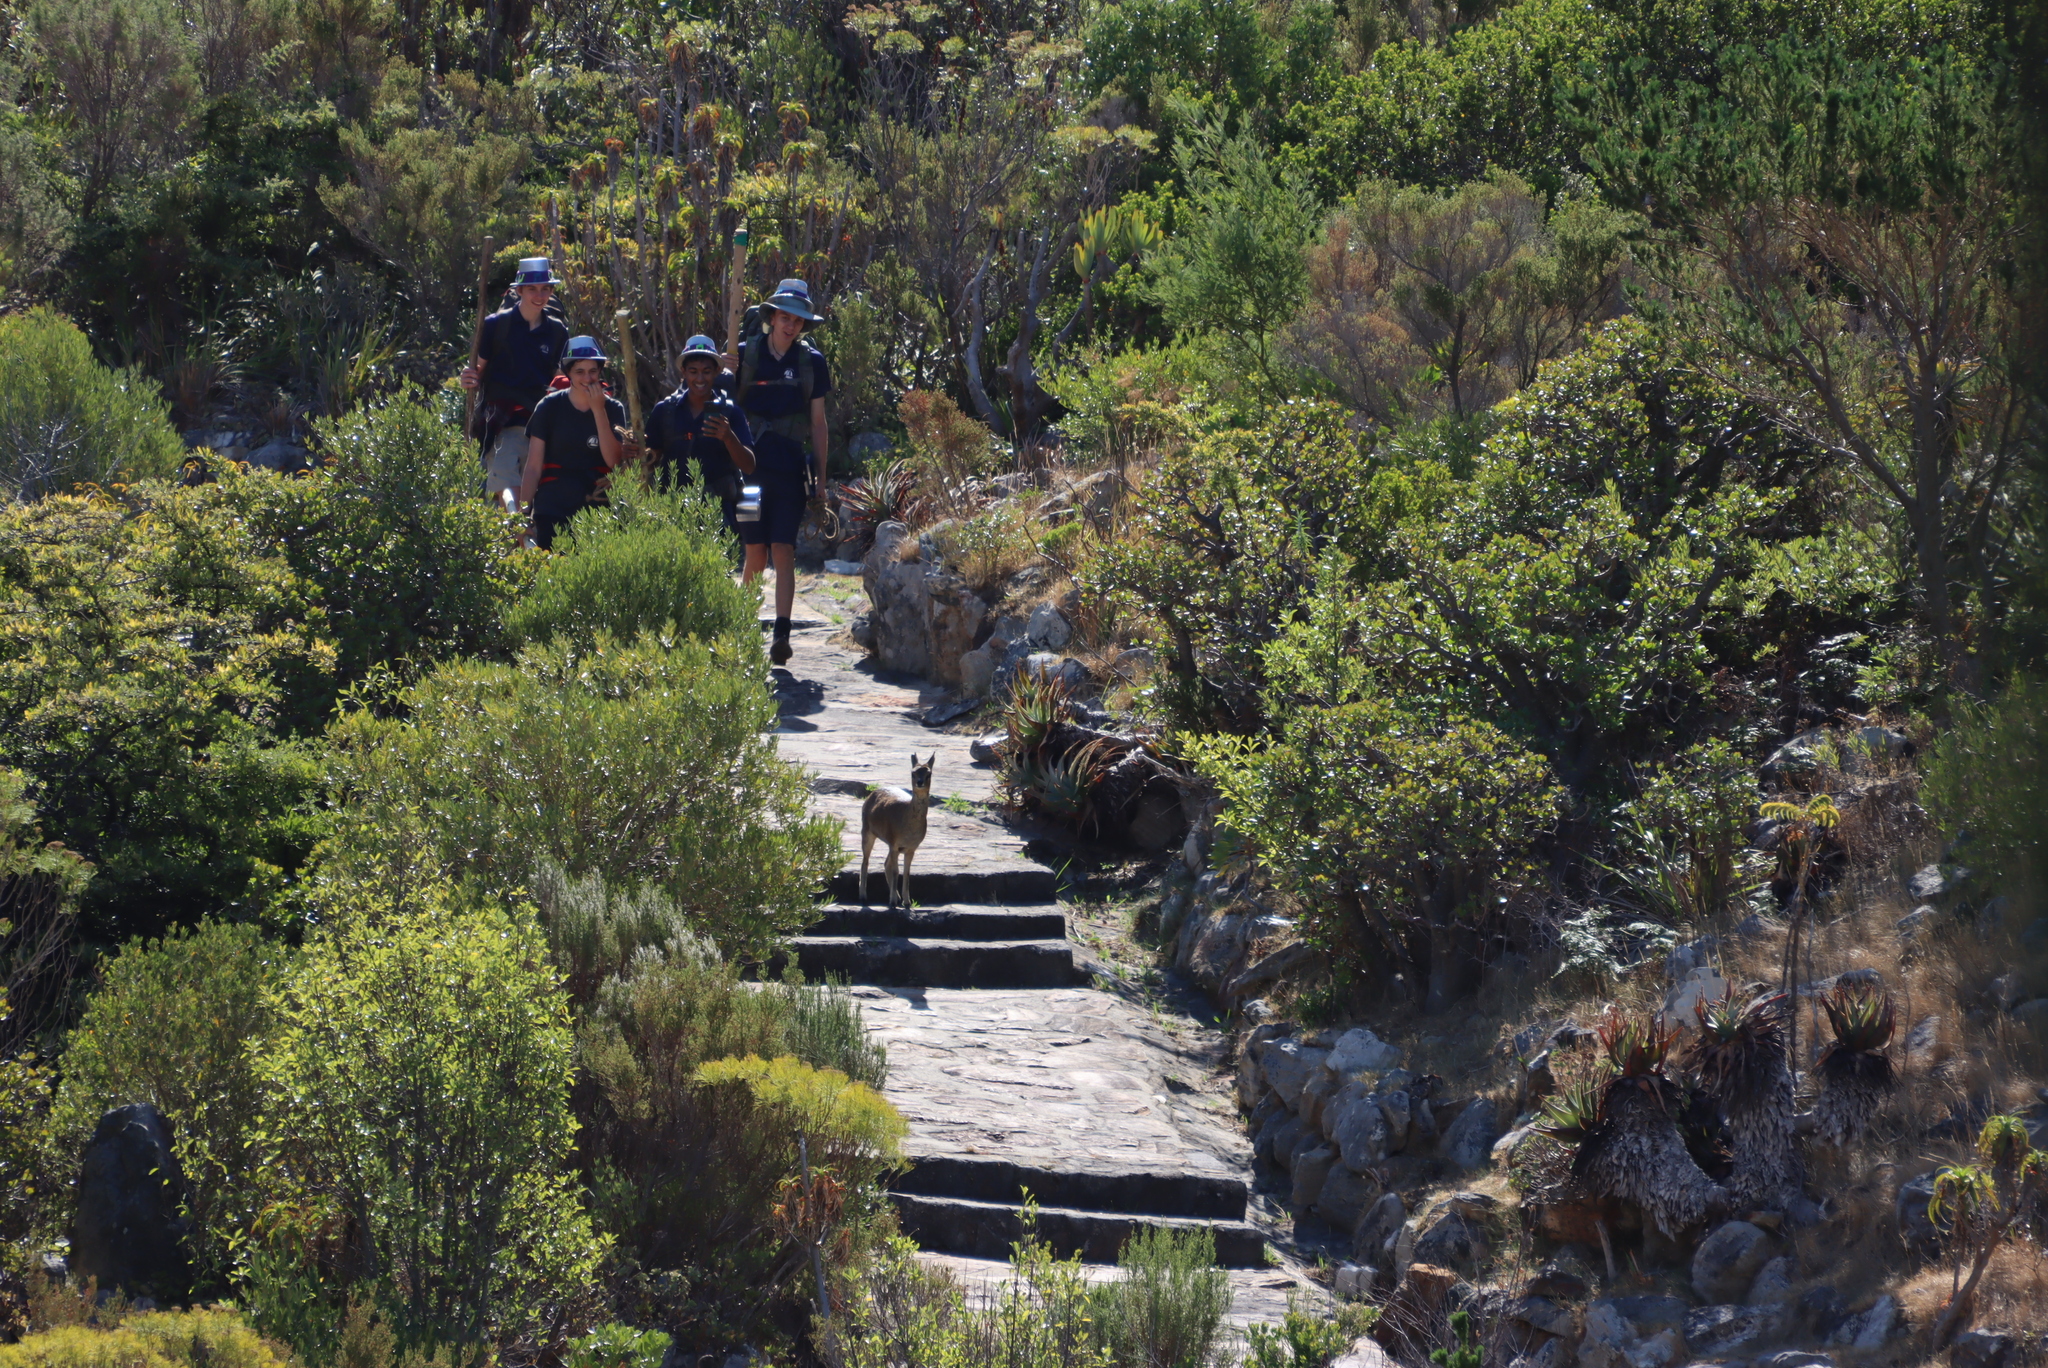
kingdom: Animalia
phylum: Chordata
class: Mammalia
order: Artiodactyla
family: Bovidae
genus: Oreotragus
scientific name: Oreotragus oreotragus
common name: Klipspringer
